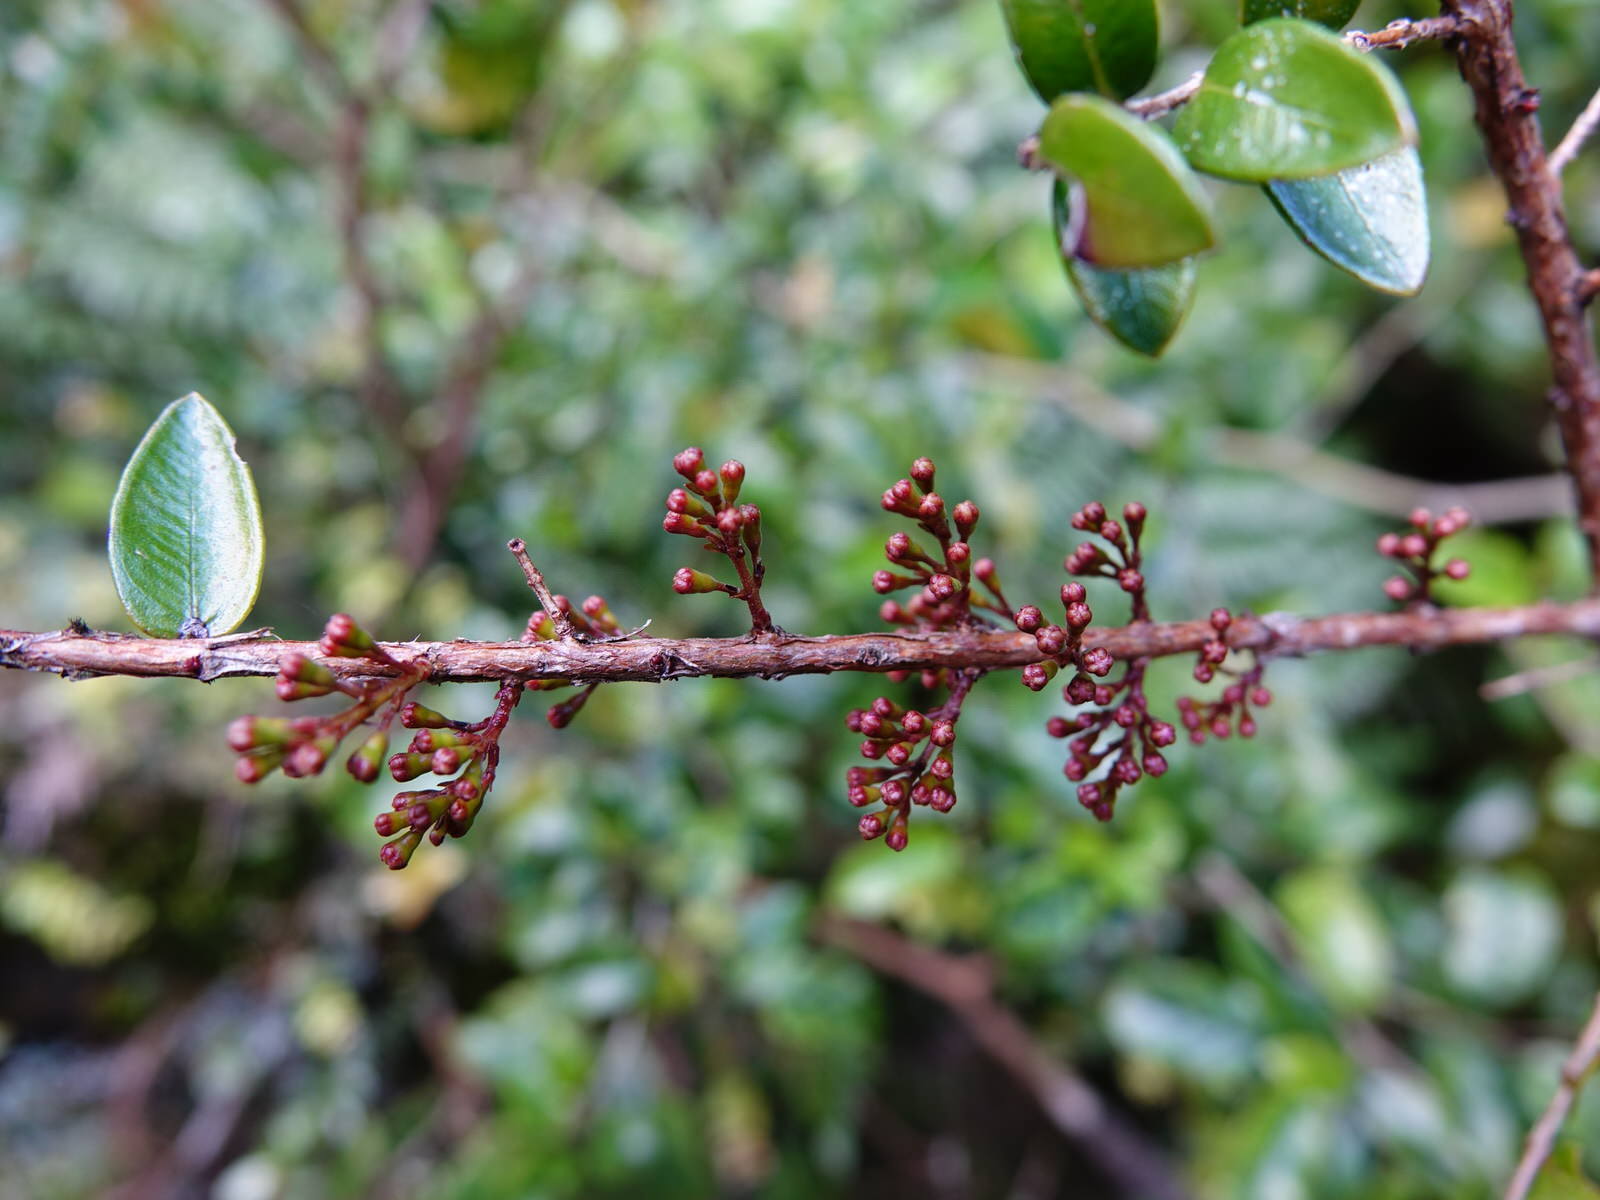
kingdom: Plantae
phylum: Tracheophyta
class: Magnoliopsida
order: Myrtales
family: Myrtaceae
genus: Metrosideros
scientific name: Metrosideros diffusa
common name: Small ratavine
